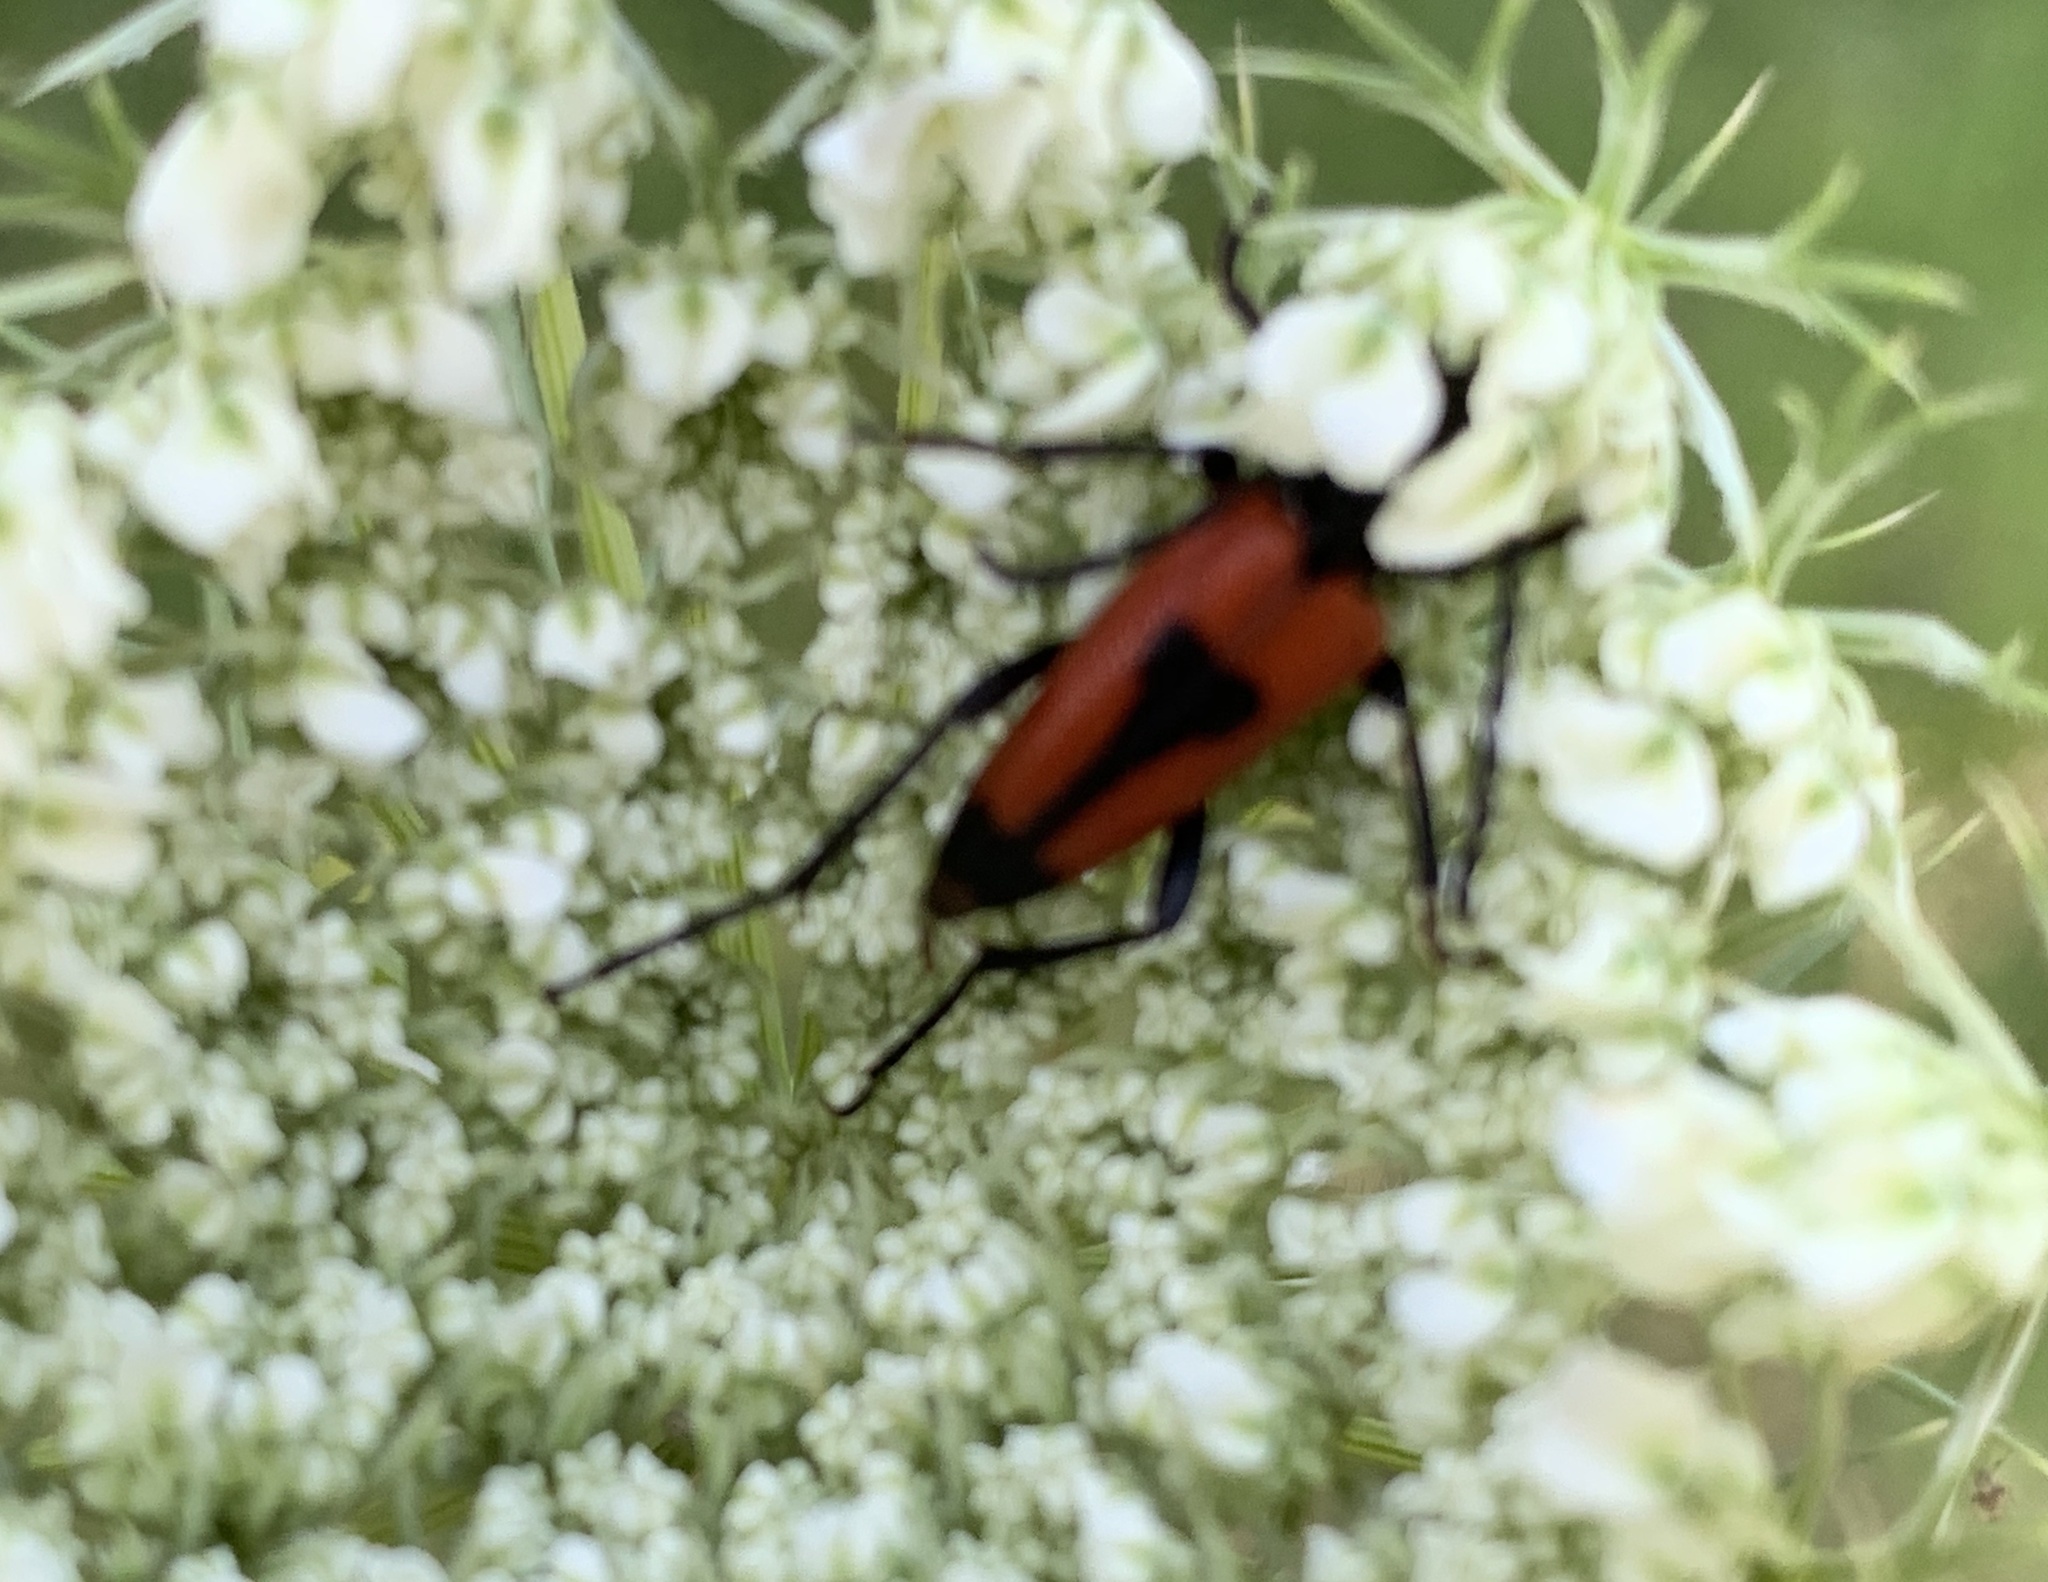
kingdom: Animalia
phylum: Arthropoda
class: Insecta
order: Coleoptera
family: Cerambycidae
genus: Stictoleptura
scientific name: Stictoleptura cordigera
